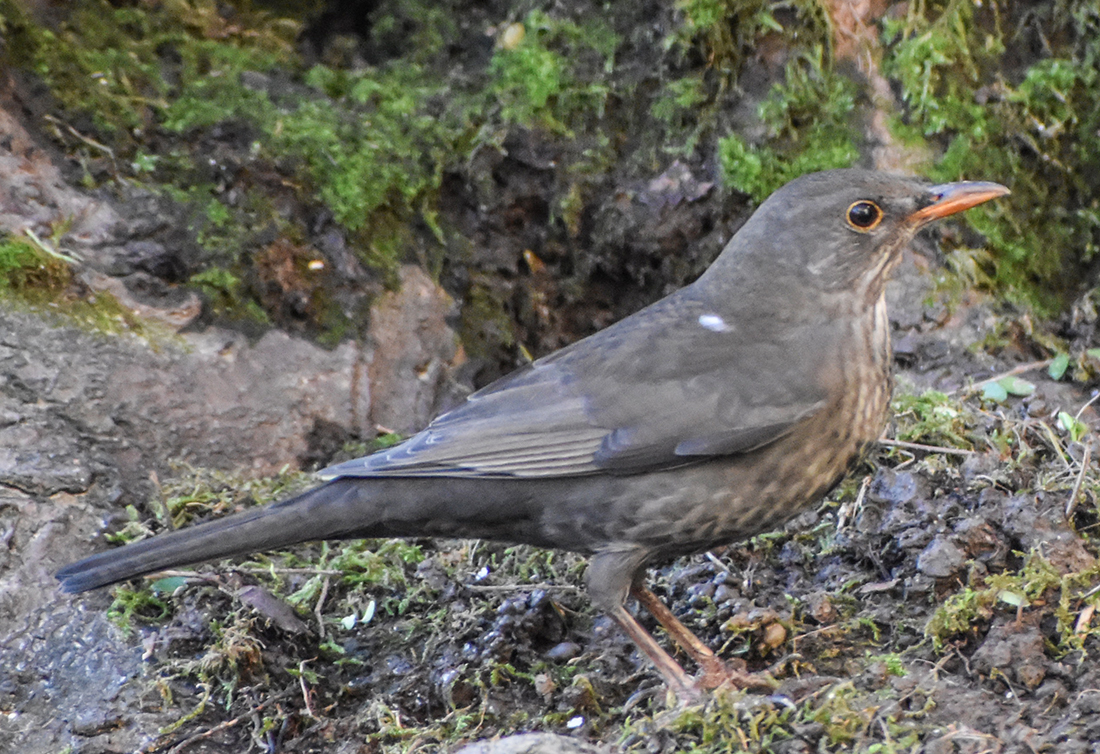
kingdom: Animalia
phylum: Chordata
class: Aves
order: Passeriformes
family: Turdidae
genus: Turdus
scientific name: Turdus merula
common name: Common blackbird
